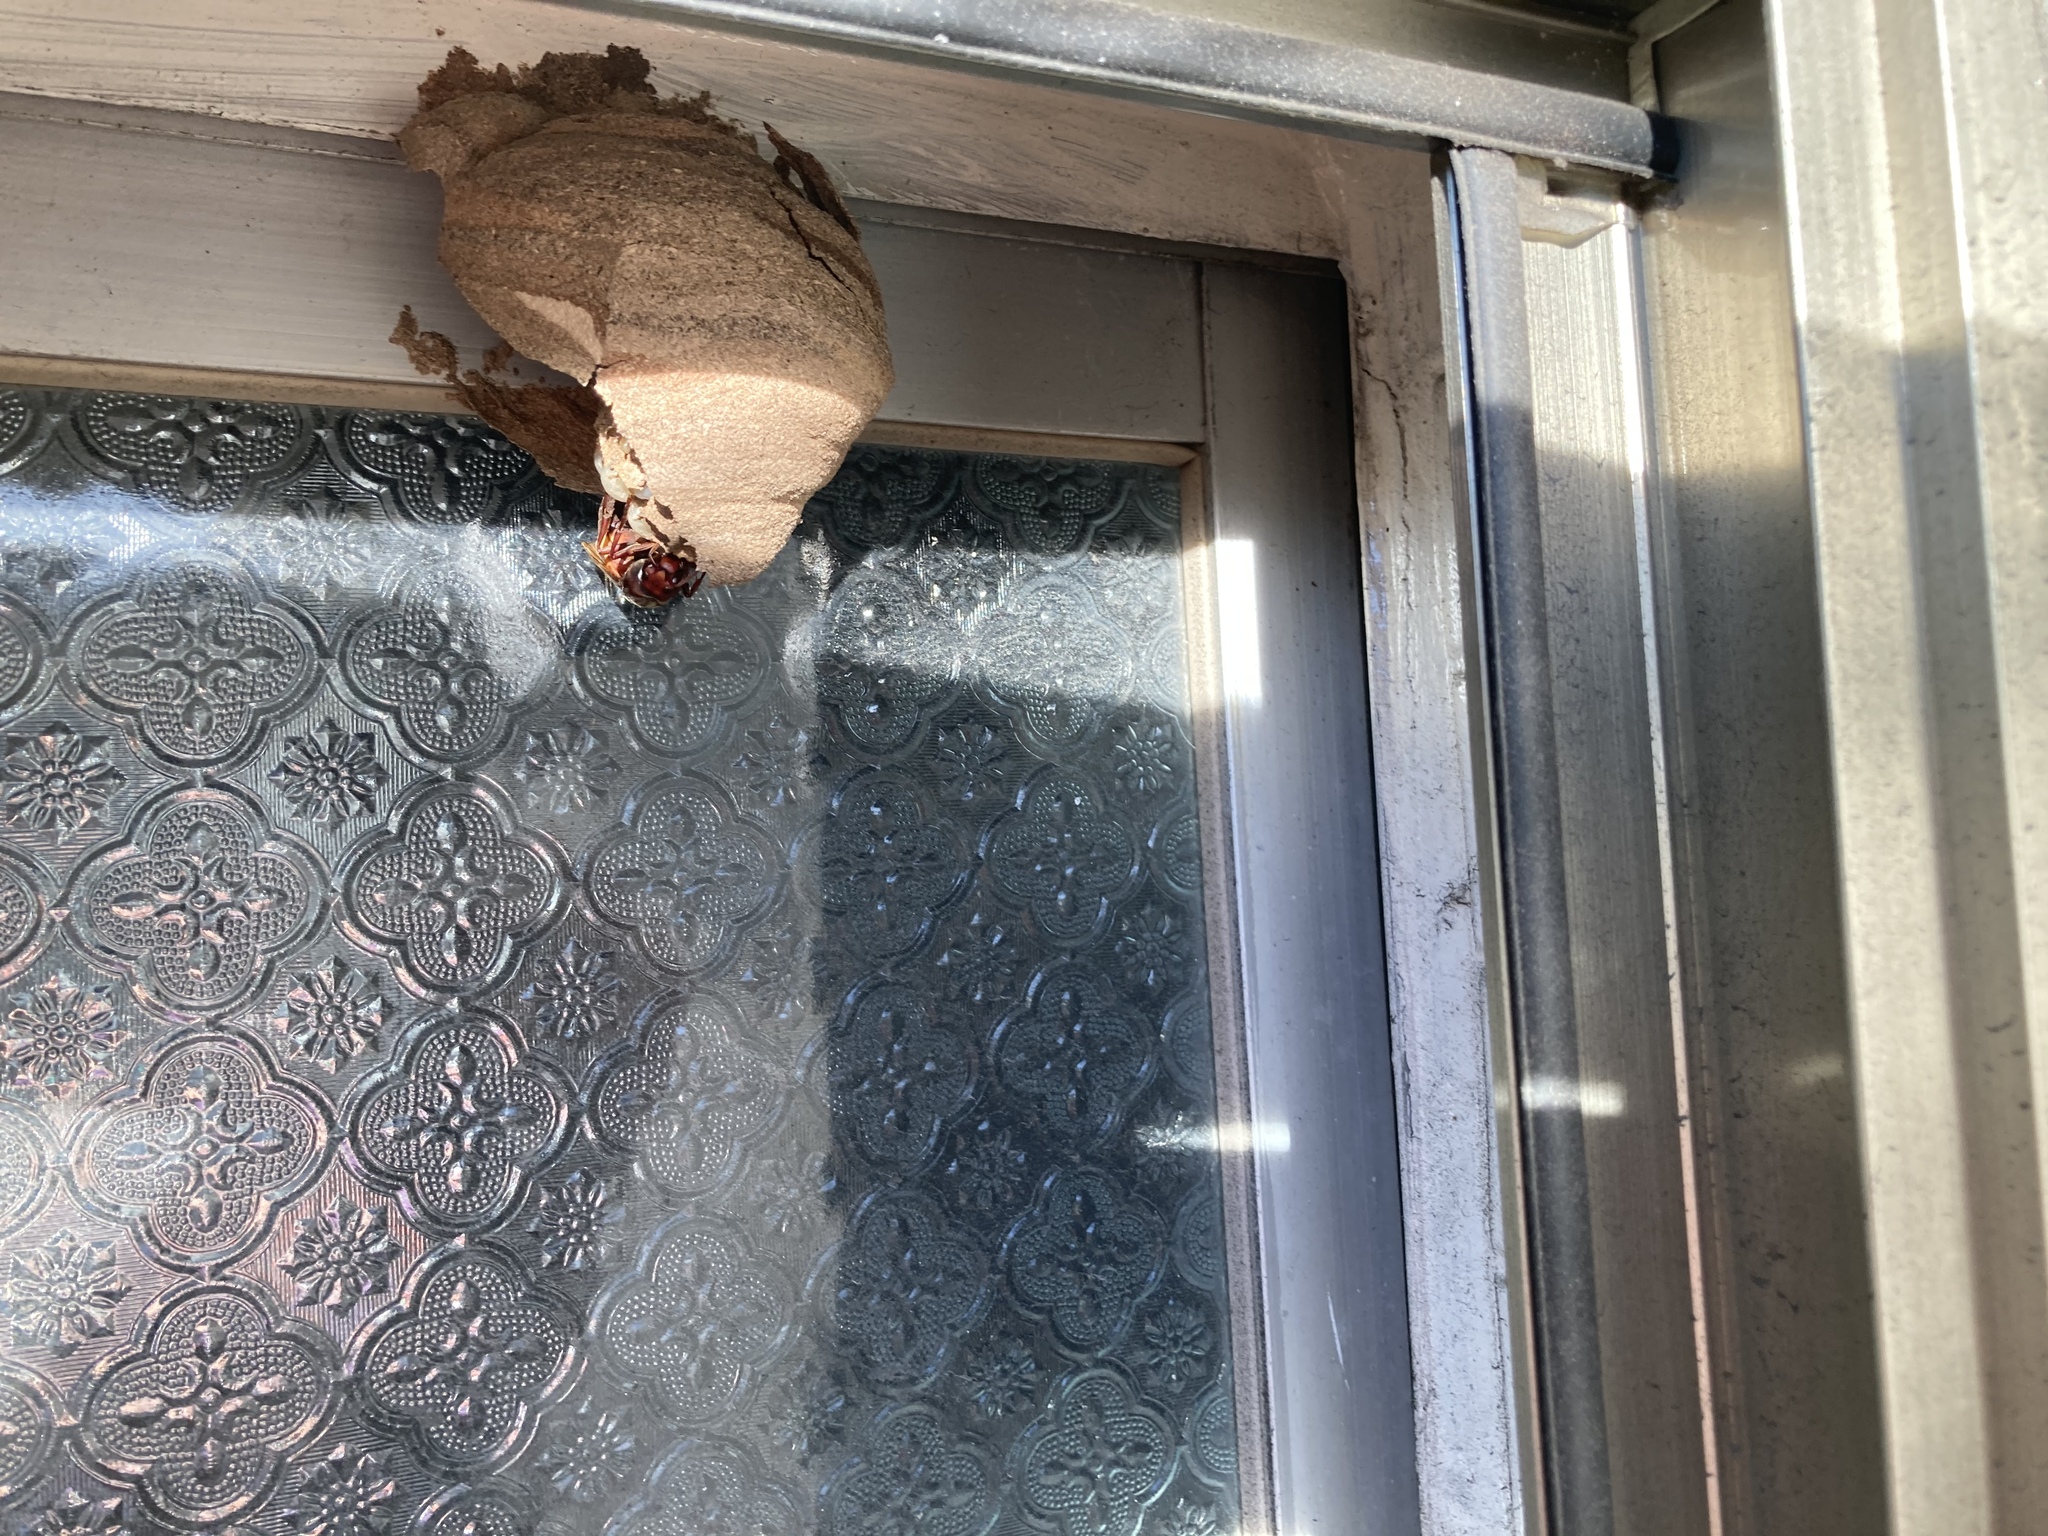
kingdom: Animalia
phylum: Arthropoda
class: Insecta
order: Hymenoptera
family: Vespidae
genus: Vespa
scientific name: Vespa affinis
